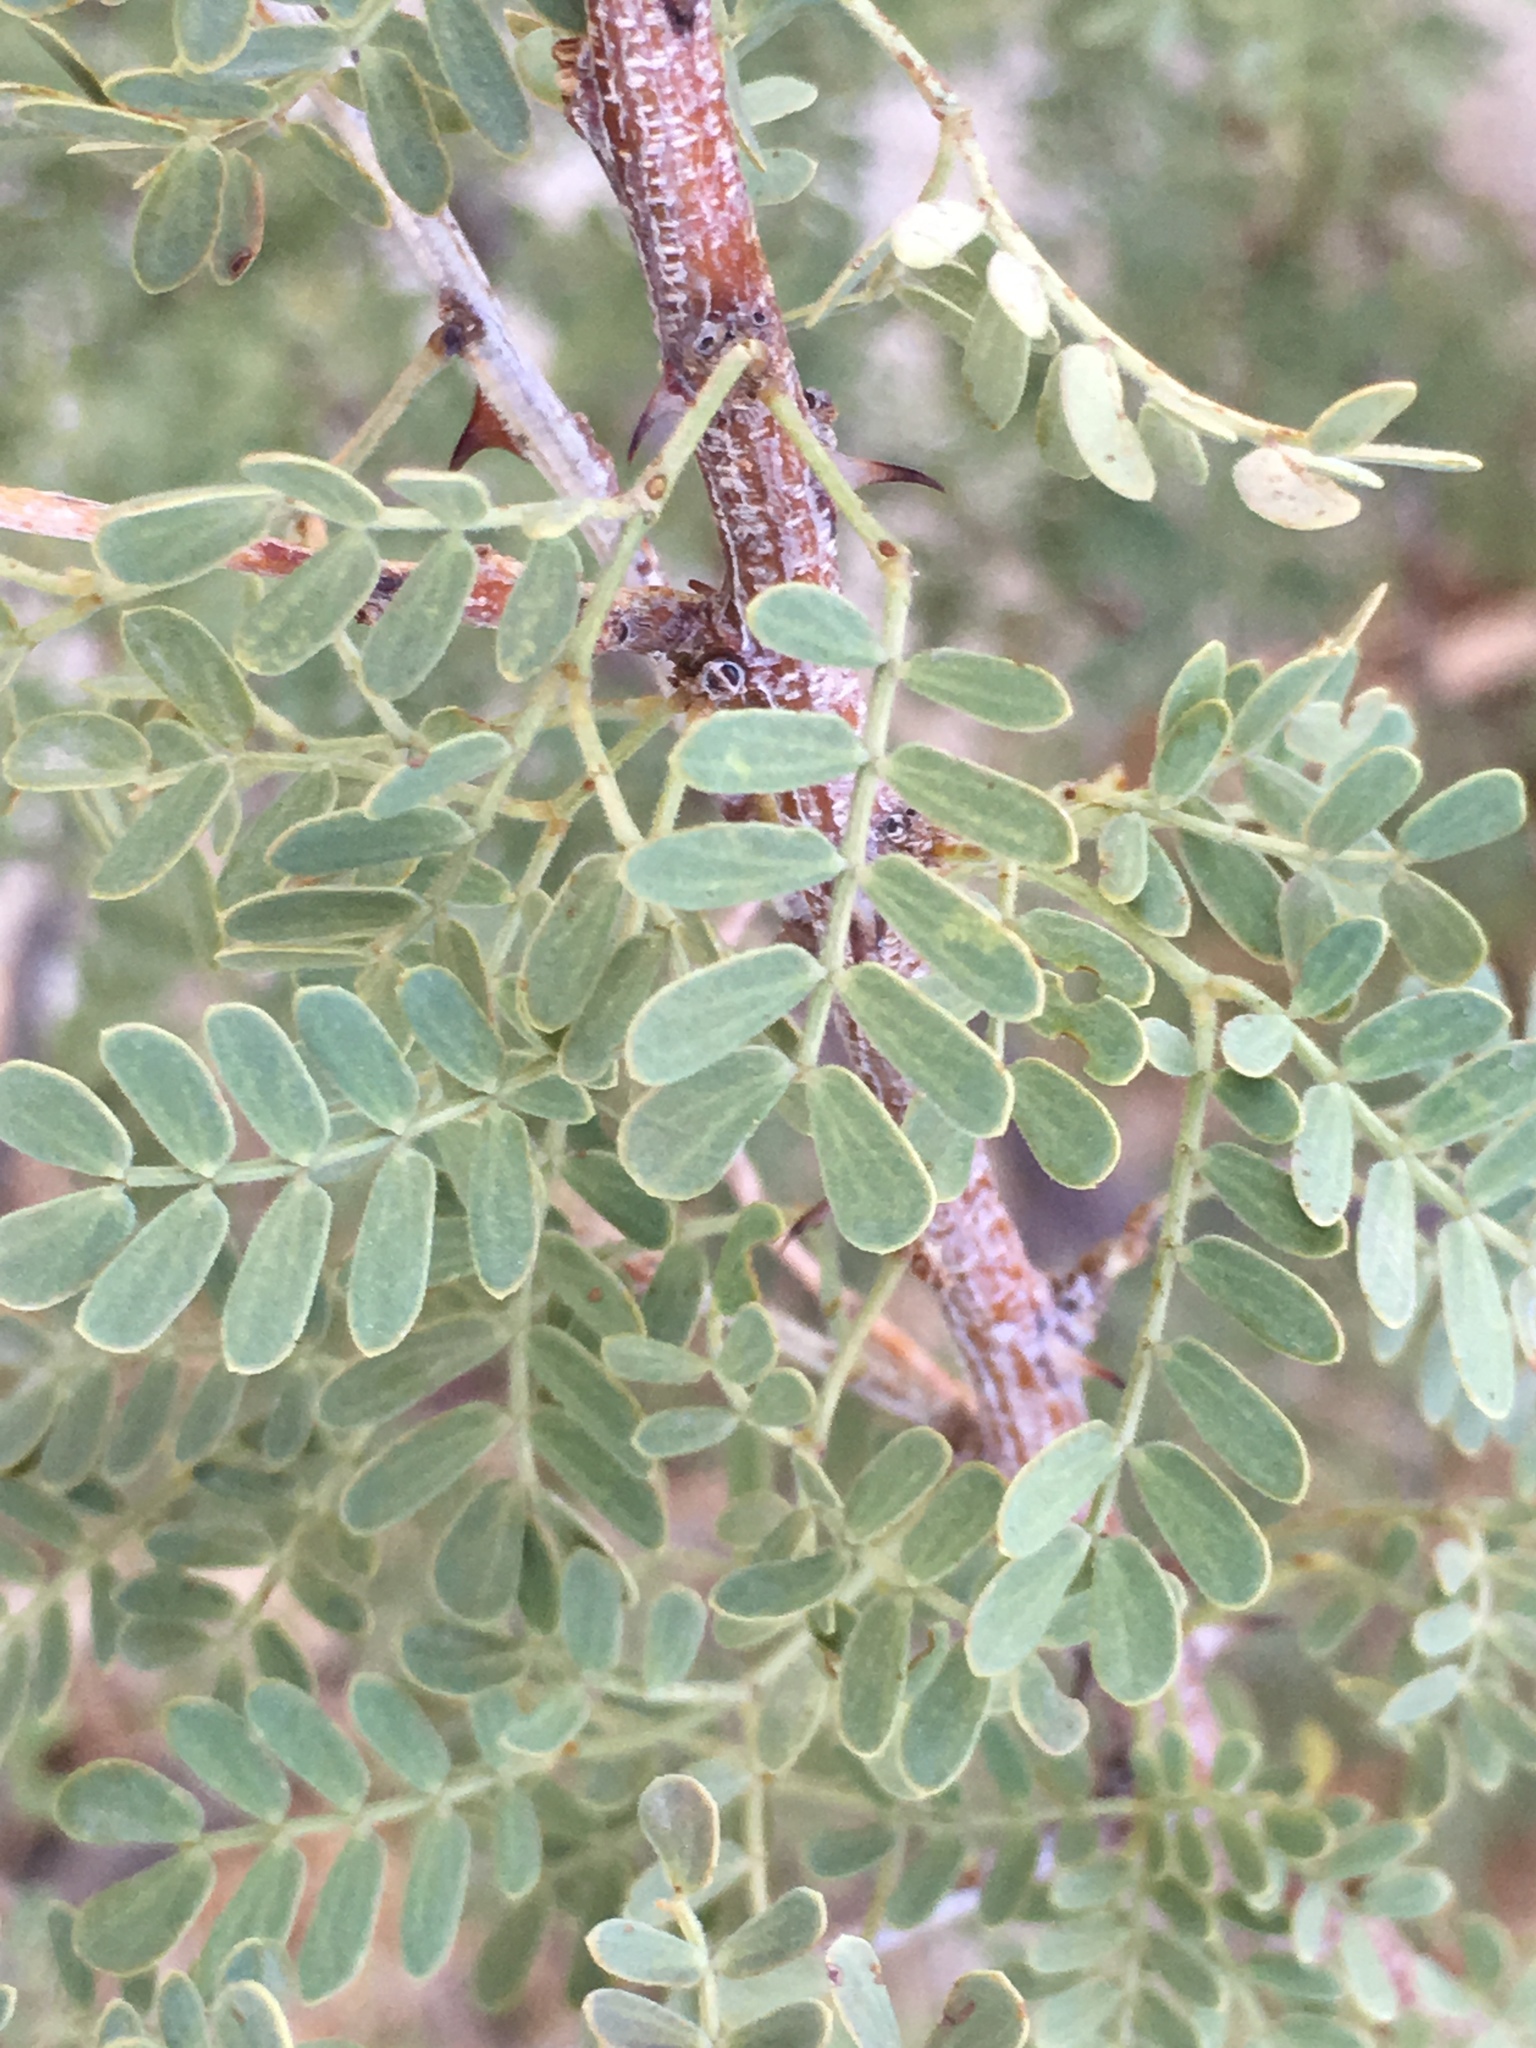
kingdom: Plantae
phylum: Tracheophyta
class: Magnoliopsida
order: Fabales
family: Fabaceae
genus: Senegalia
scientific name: Senegalia greggii
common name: Texas-mimosa
